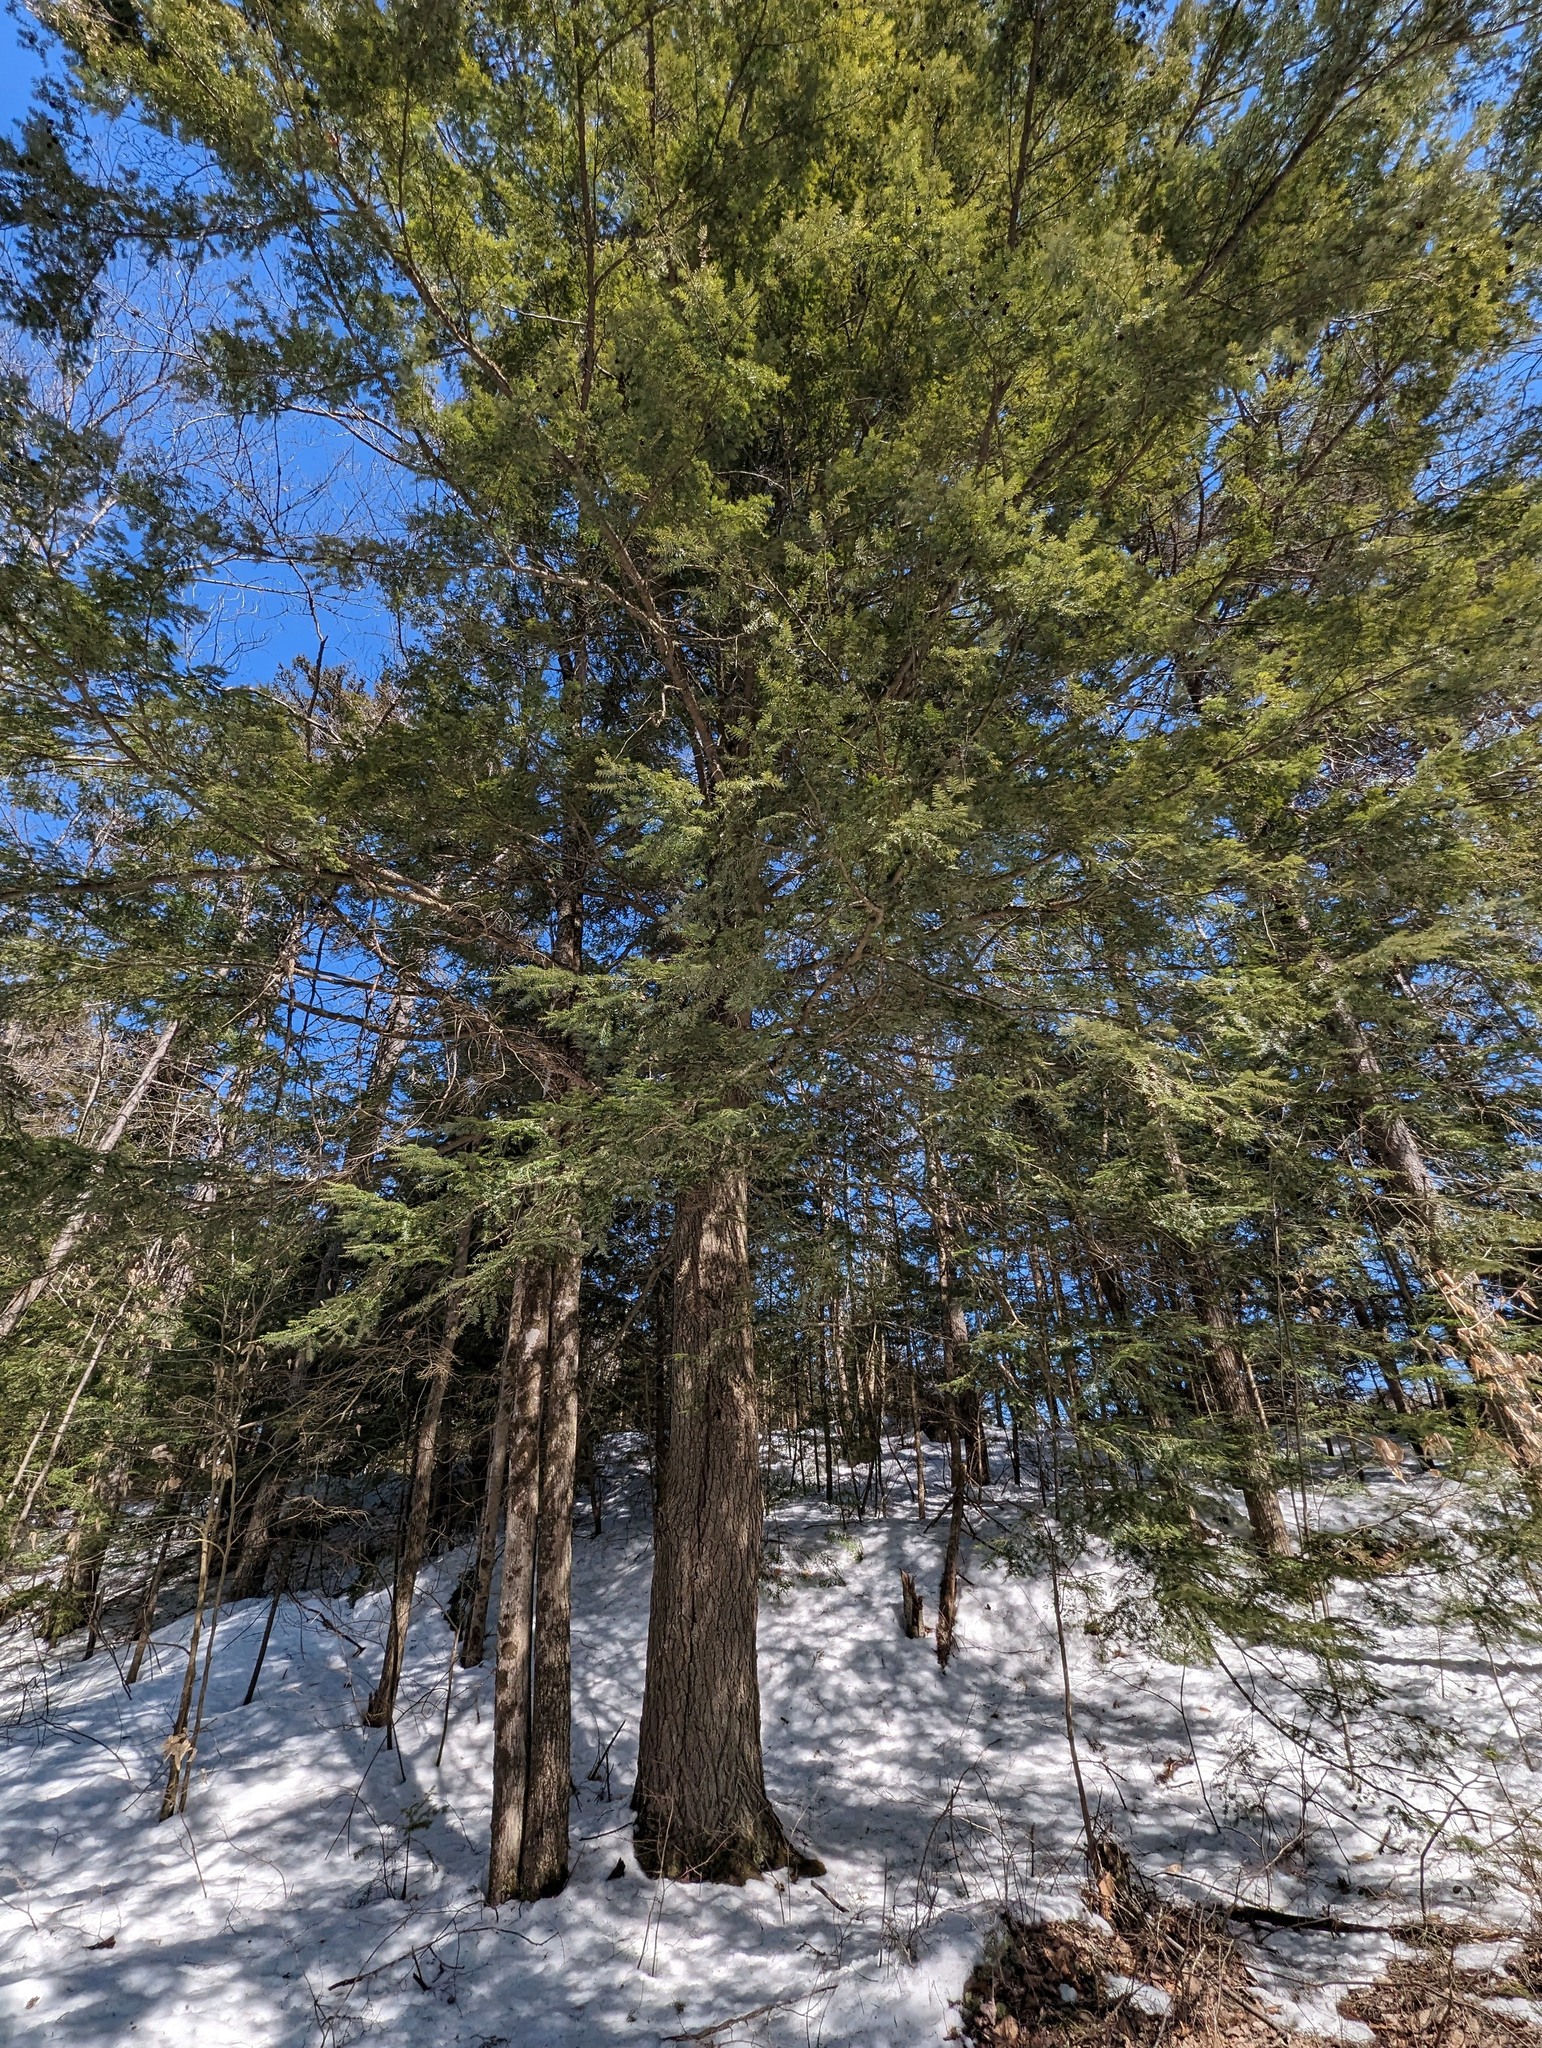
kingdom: Plantae
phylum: Tracheophyta
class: Pinopsida
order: Pinales
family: Pinaceae
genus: Tsuga
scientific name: Tsuga canadensis
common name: Eastern hemlock
